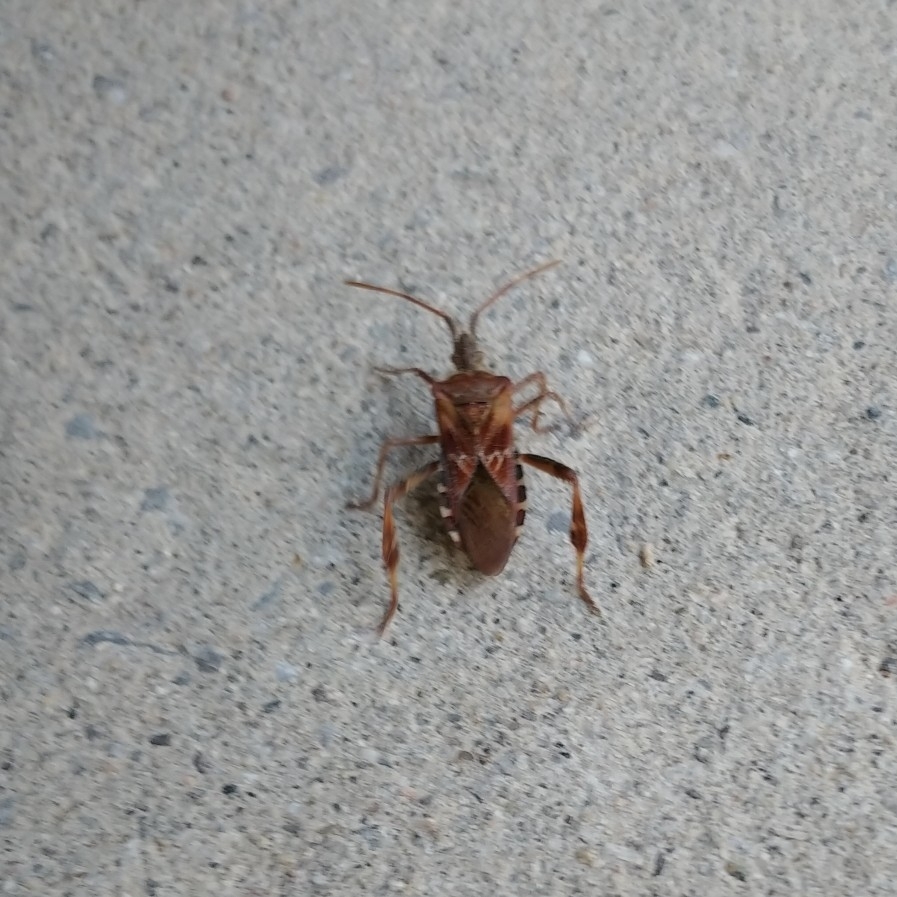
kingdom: Animalia
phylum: Arthropoda
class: Insecta
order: Hemiptera
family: Coreidae
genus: Leptoglossus
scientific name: Leptoglossus occidentalis
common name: Western conifer-seed bug
